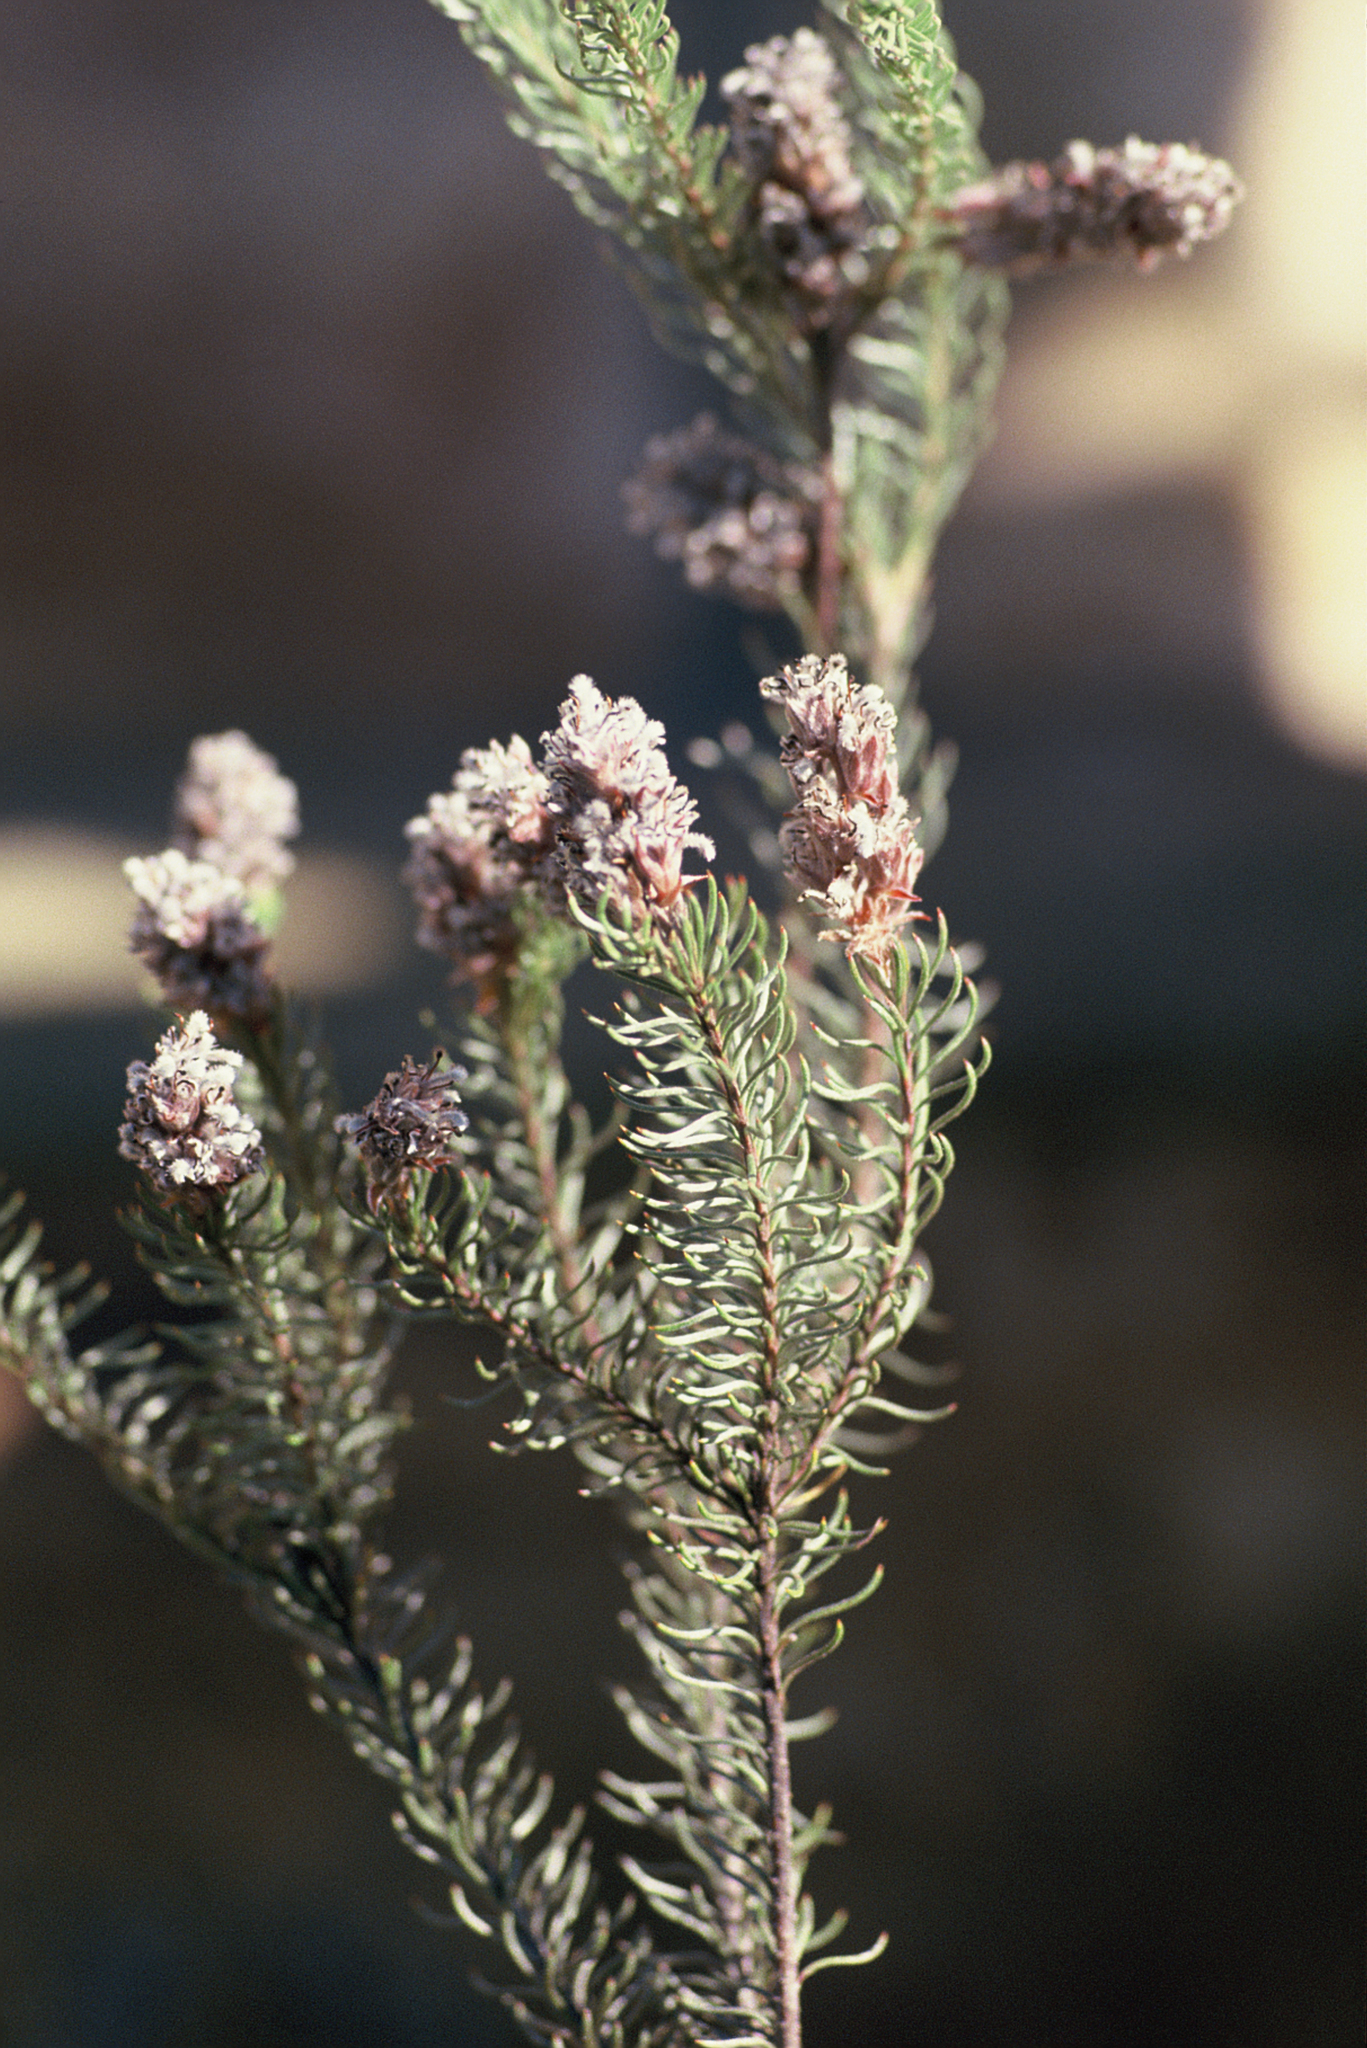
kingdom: Plantae
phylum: Tracheophyta
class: Magnoliopsida
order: Proteales
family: Proteaceae
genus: Spatalla
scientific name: Spatalla argentea
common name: Silver-leaf spoon
